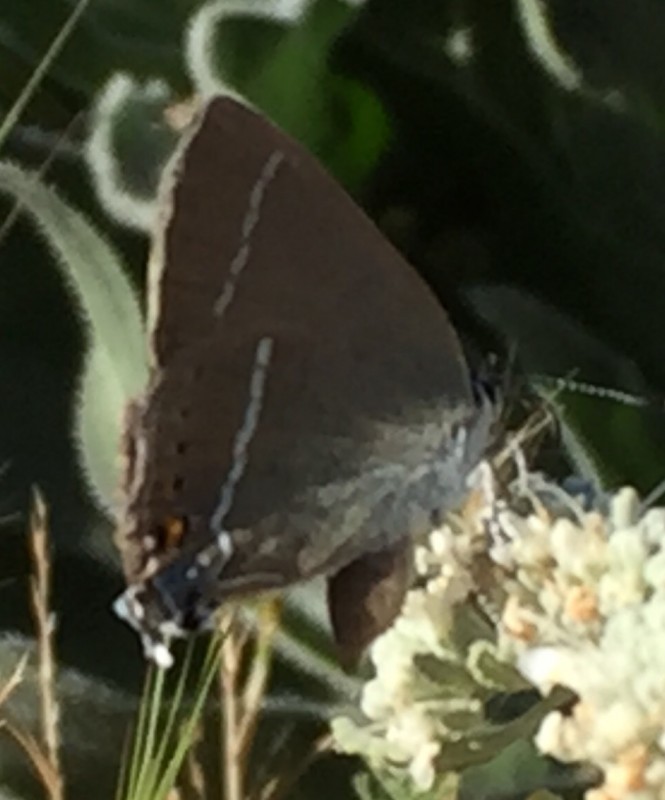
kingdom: Animalia
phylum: Arthropoda
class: Insecta
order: Lepidoptera
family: Lycaenidae
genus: Tuttiola
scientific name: Tuttiola spini
